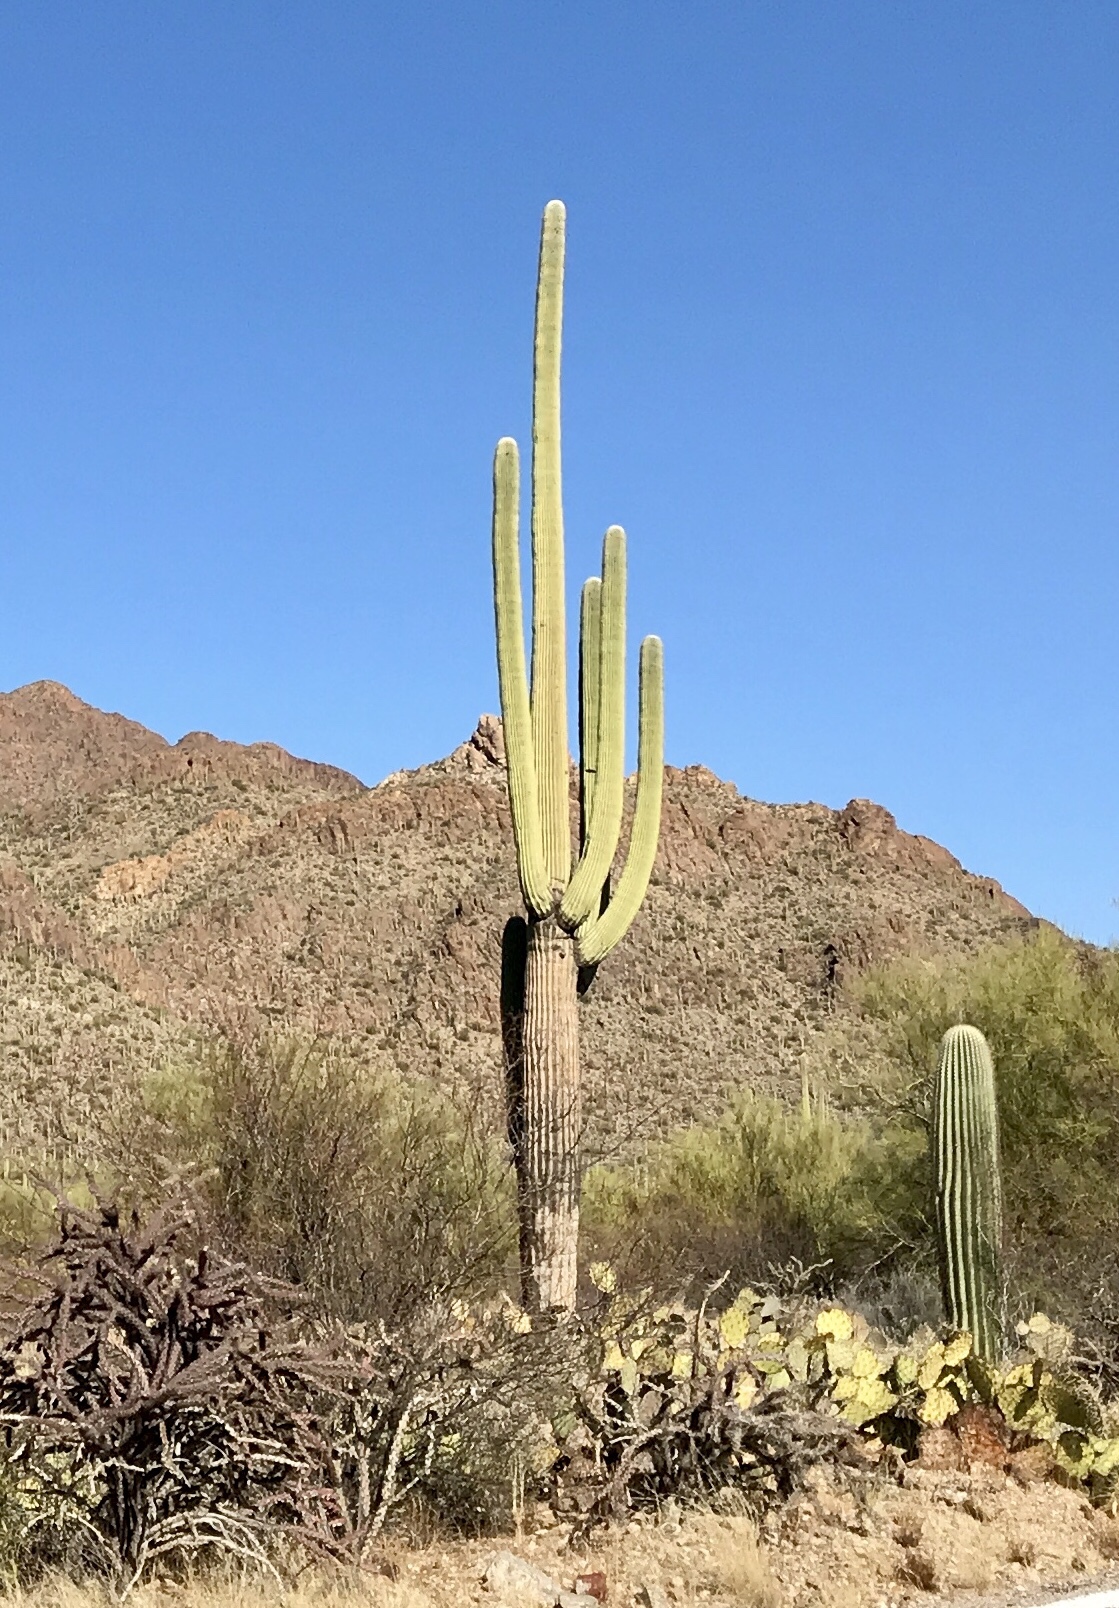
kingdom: Plantae
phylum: Tracheophyta
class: Magnoliopsida
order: Caryophyllales
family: Cactaceae
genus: Carnegiea
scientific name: Carnegiea gigantea
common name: Saguaro
